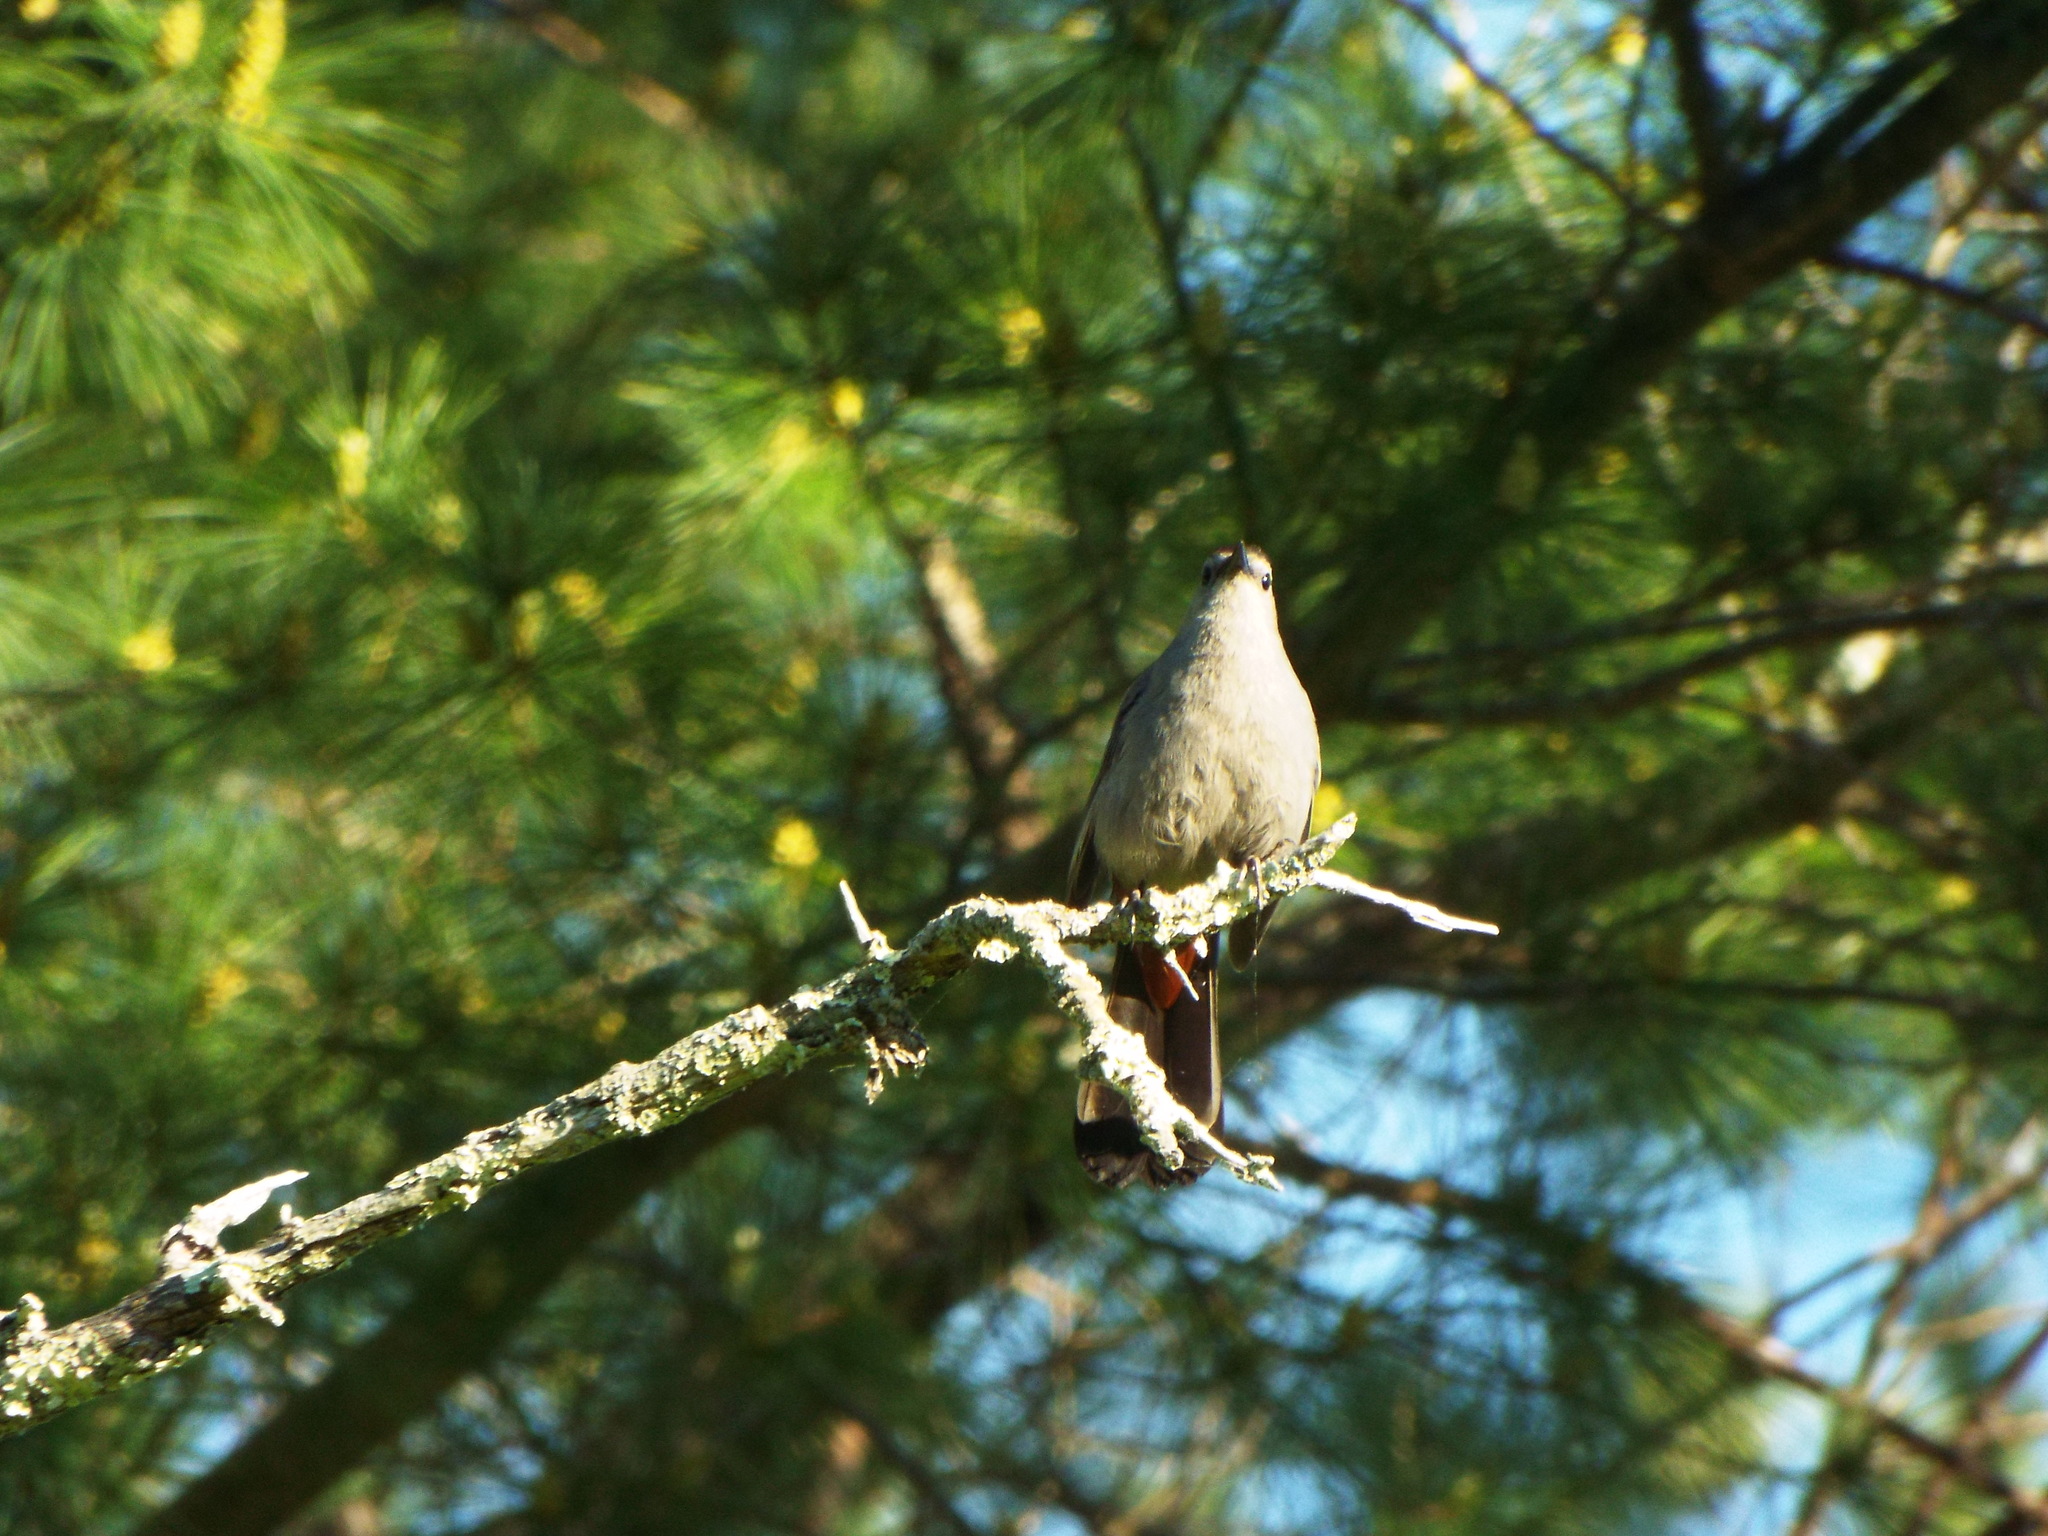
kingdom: Animalia
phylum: Chordata
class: Aves
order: Passeriformes
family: Mimidae
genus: Dumetella
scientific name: Dumetella carolinensis
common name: Gray catbird
